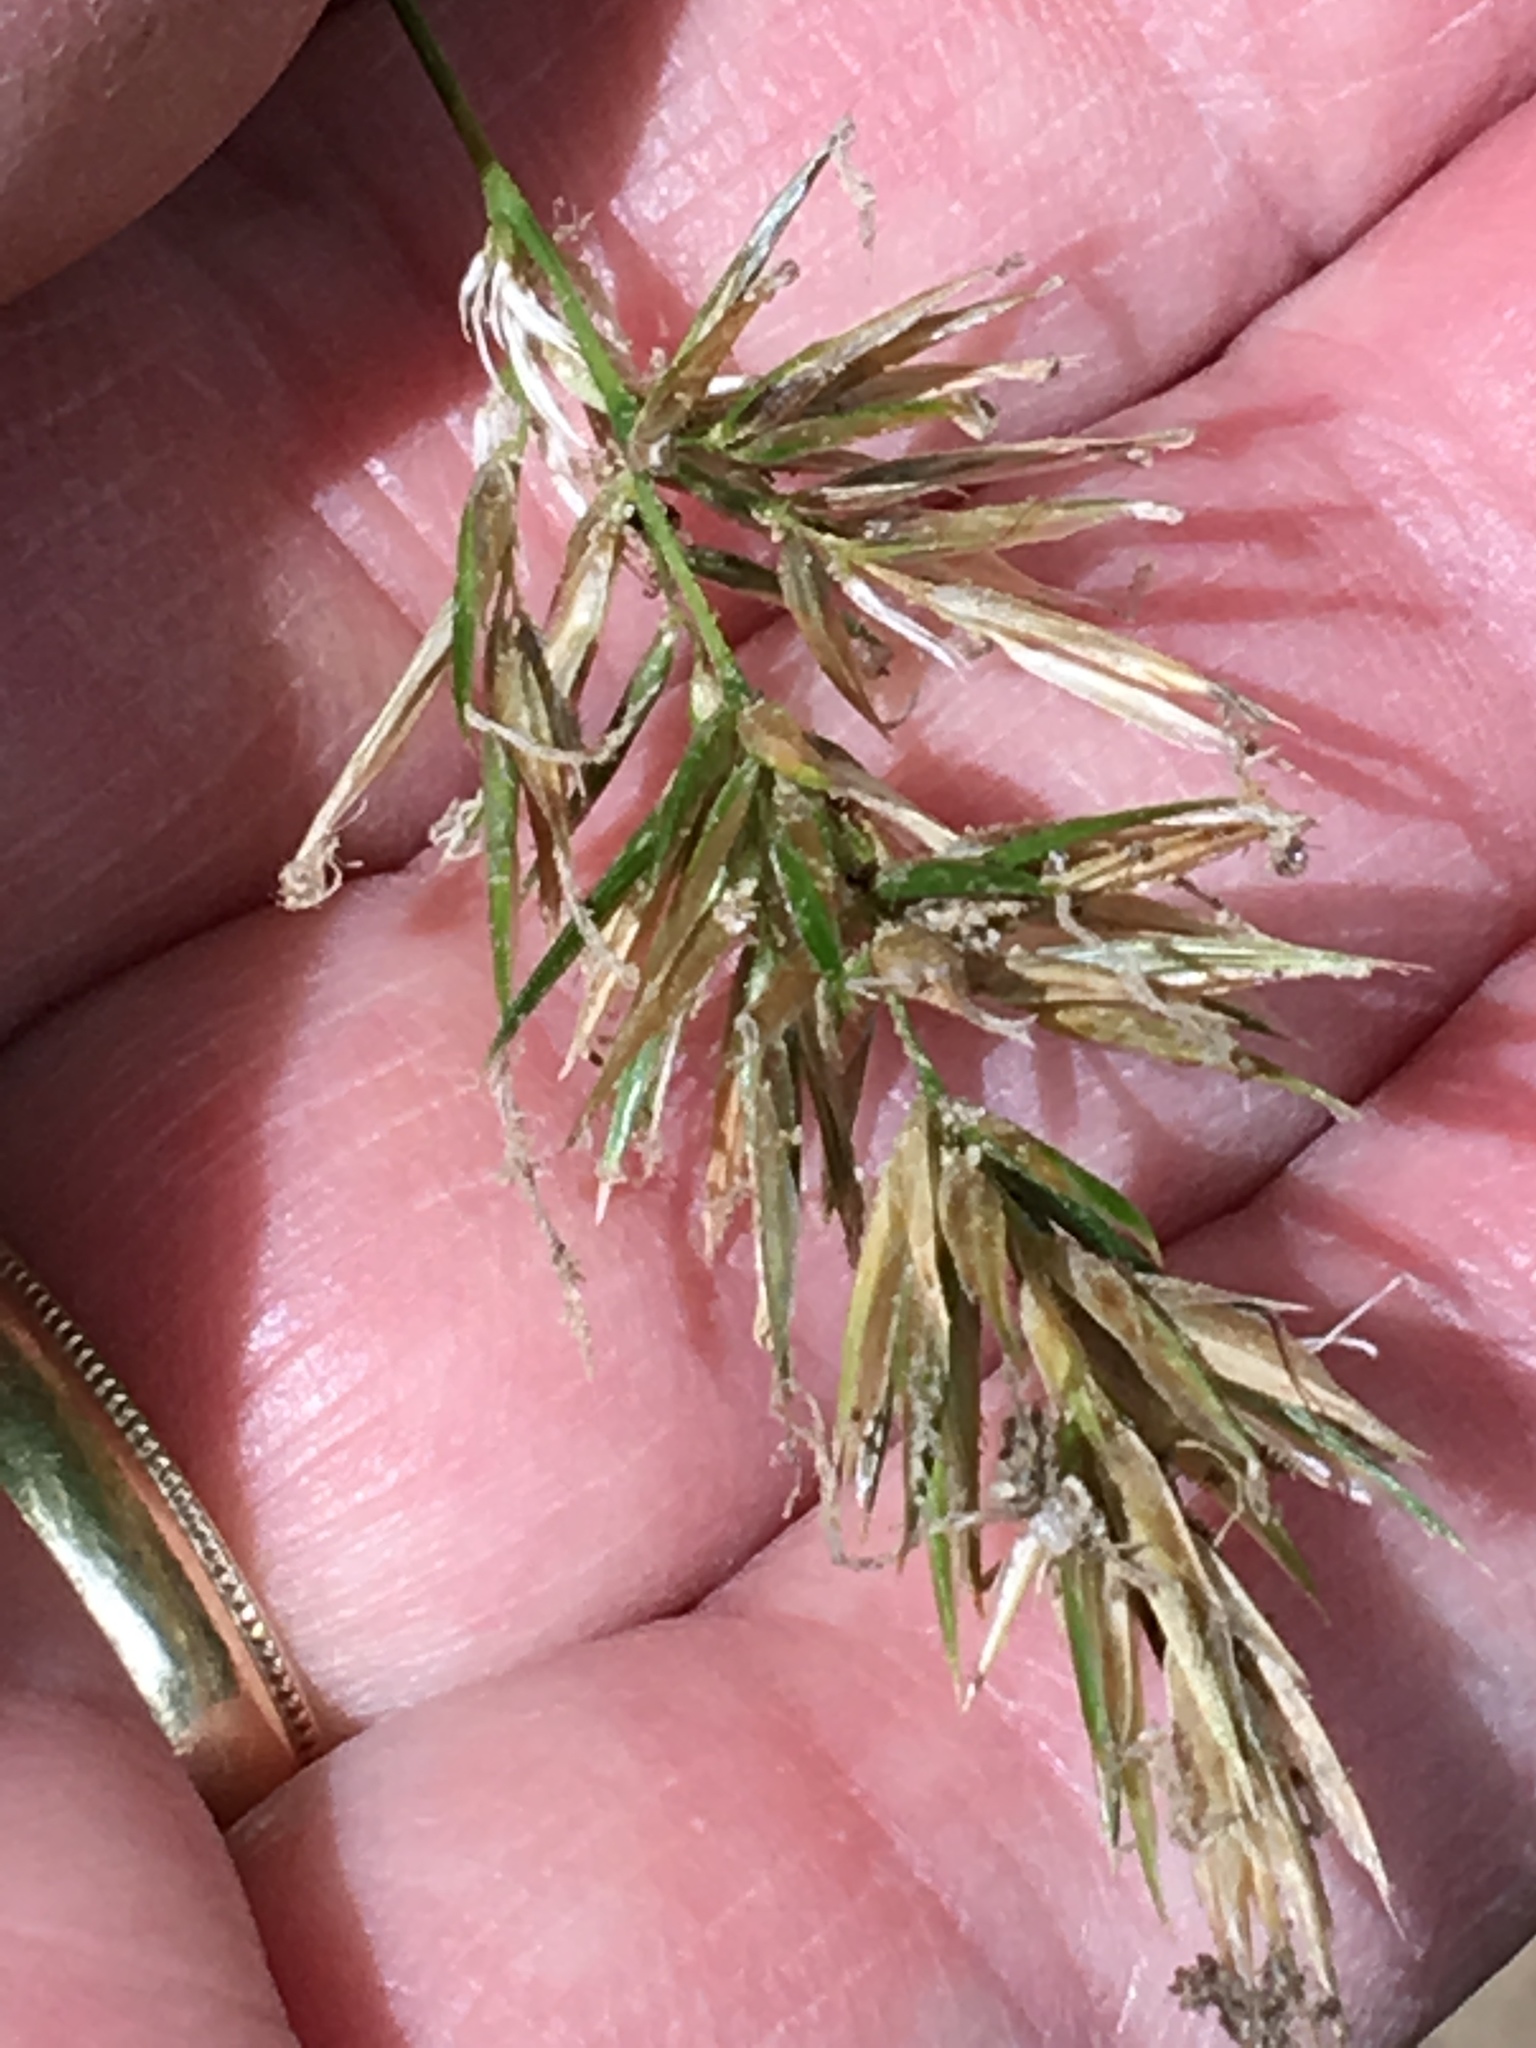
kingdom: Plantae
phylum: Tracheophyta
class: Liliopsida
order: Poales
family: Poaceae
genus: Anthoxanthum
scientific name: Anthoxanthum odoratum
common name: Sweet vernalgrass
